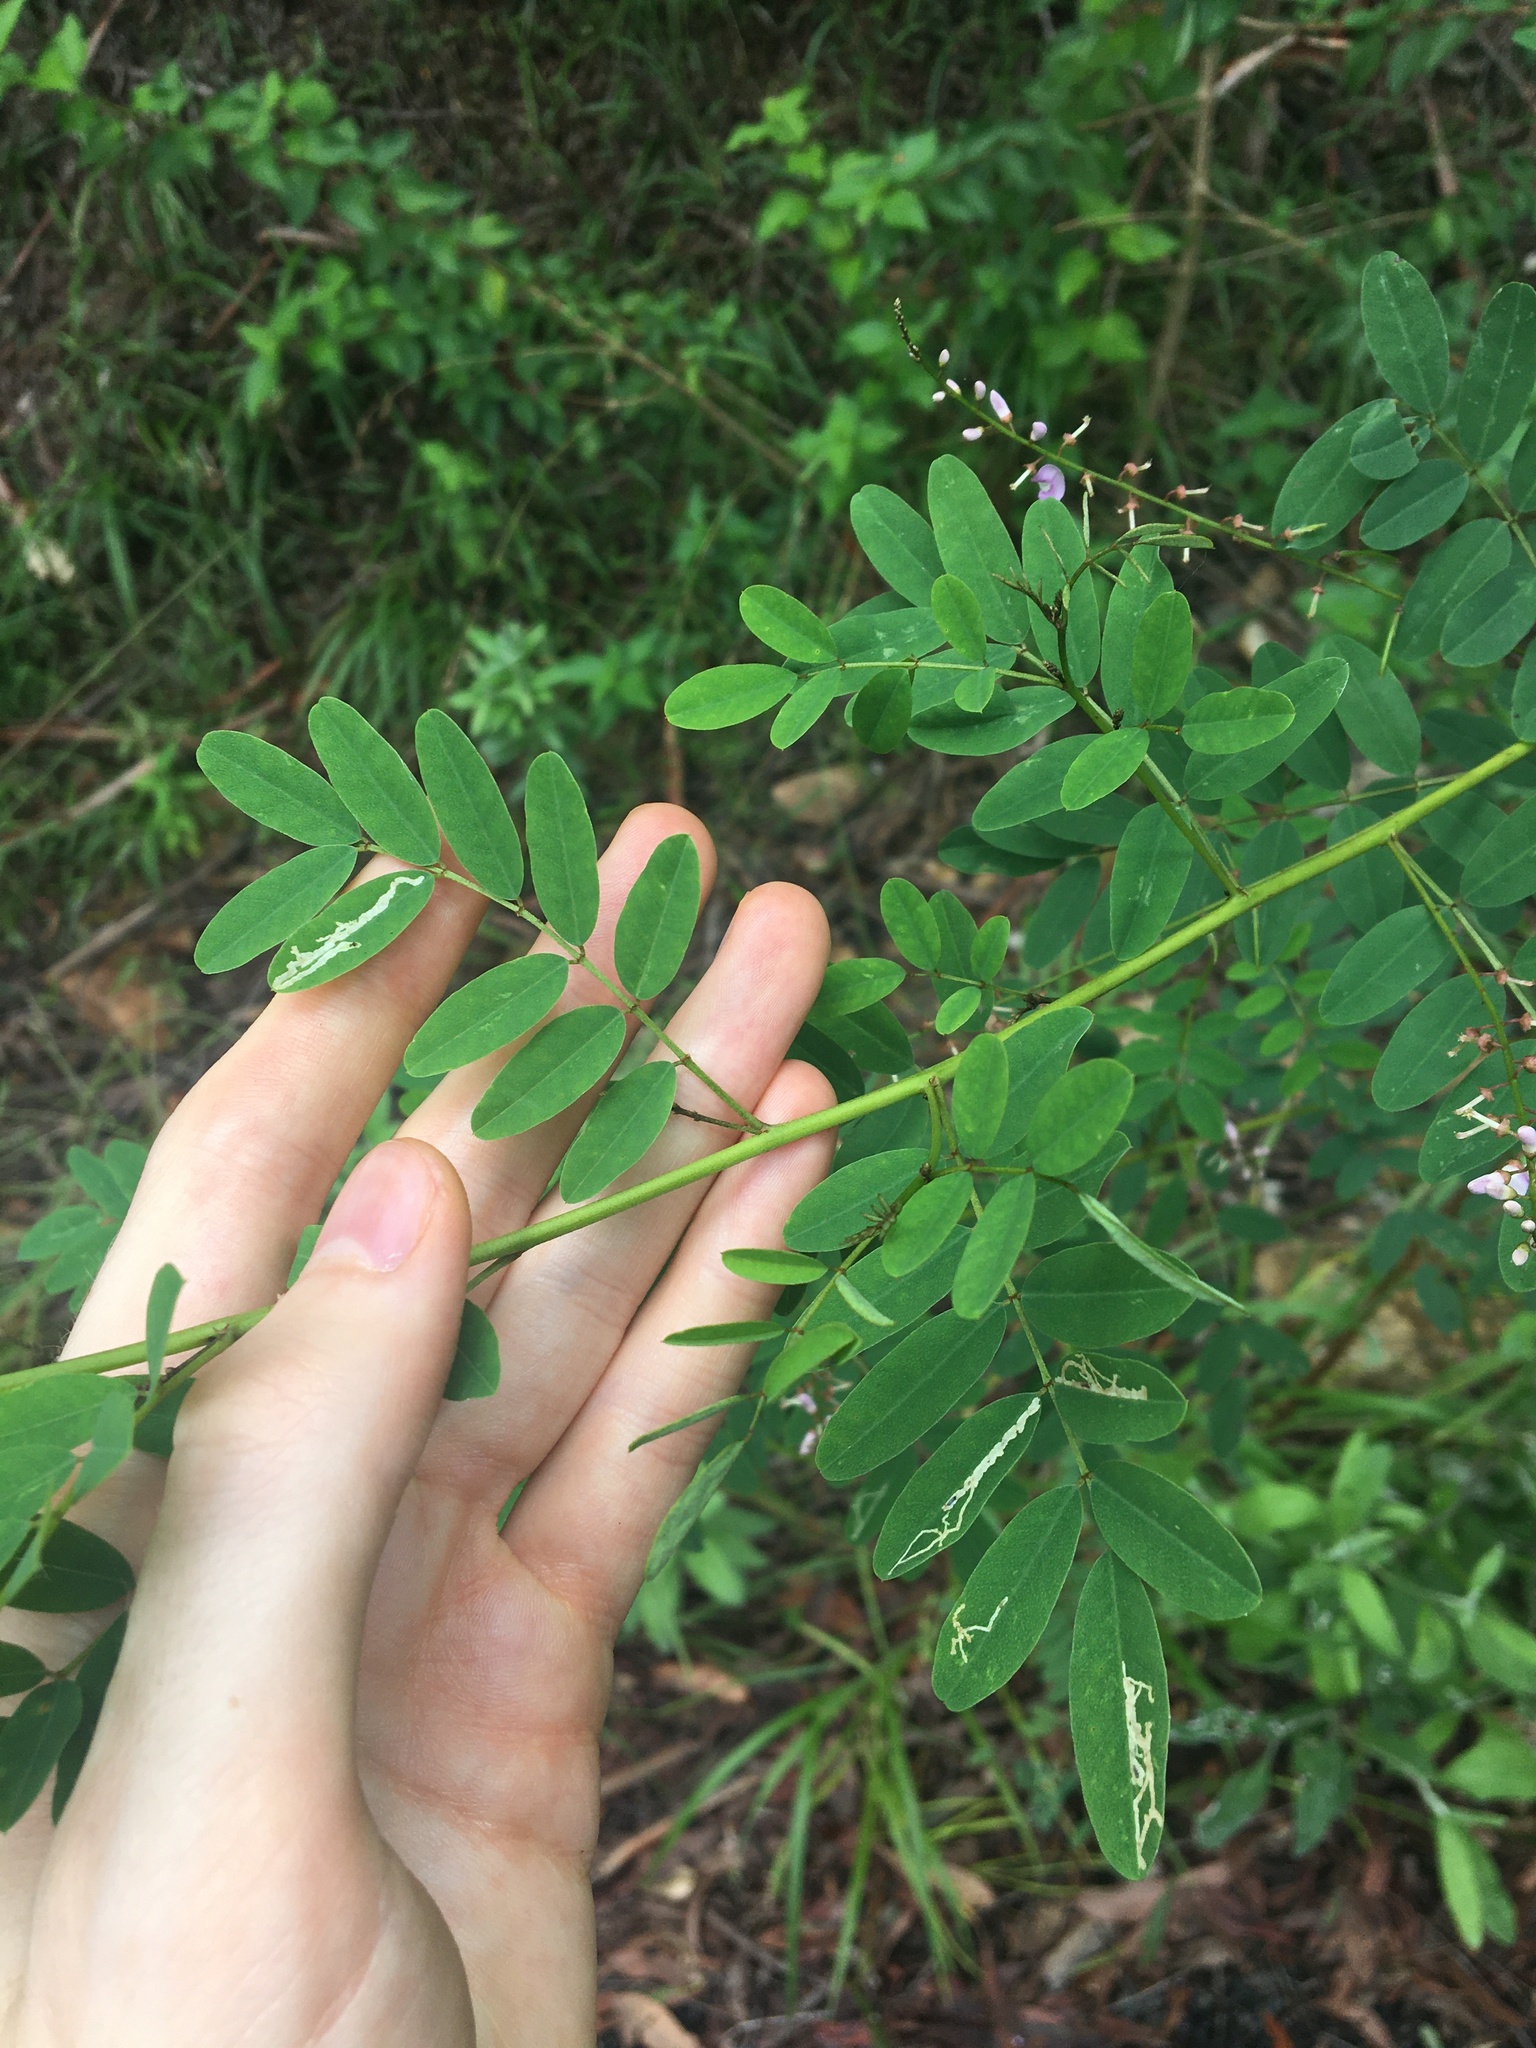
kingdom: Plantae
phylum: Tracheophyta
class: Magnoliopsida
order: Fabales
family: Fabaceae
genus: Indigofera
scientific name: Indigofera australis
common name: Australian indigo
